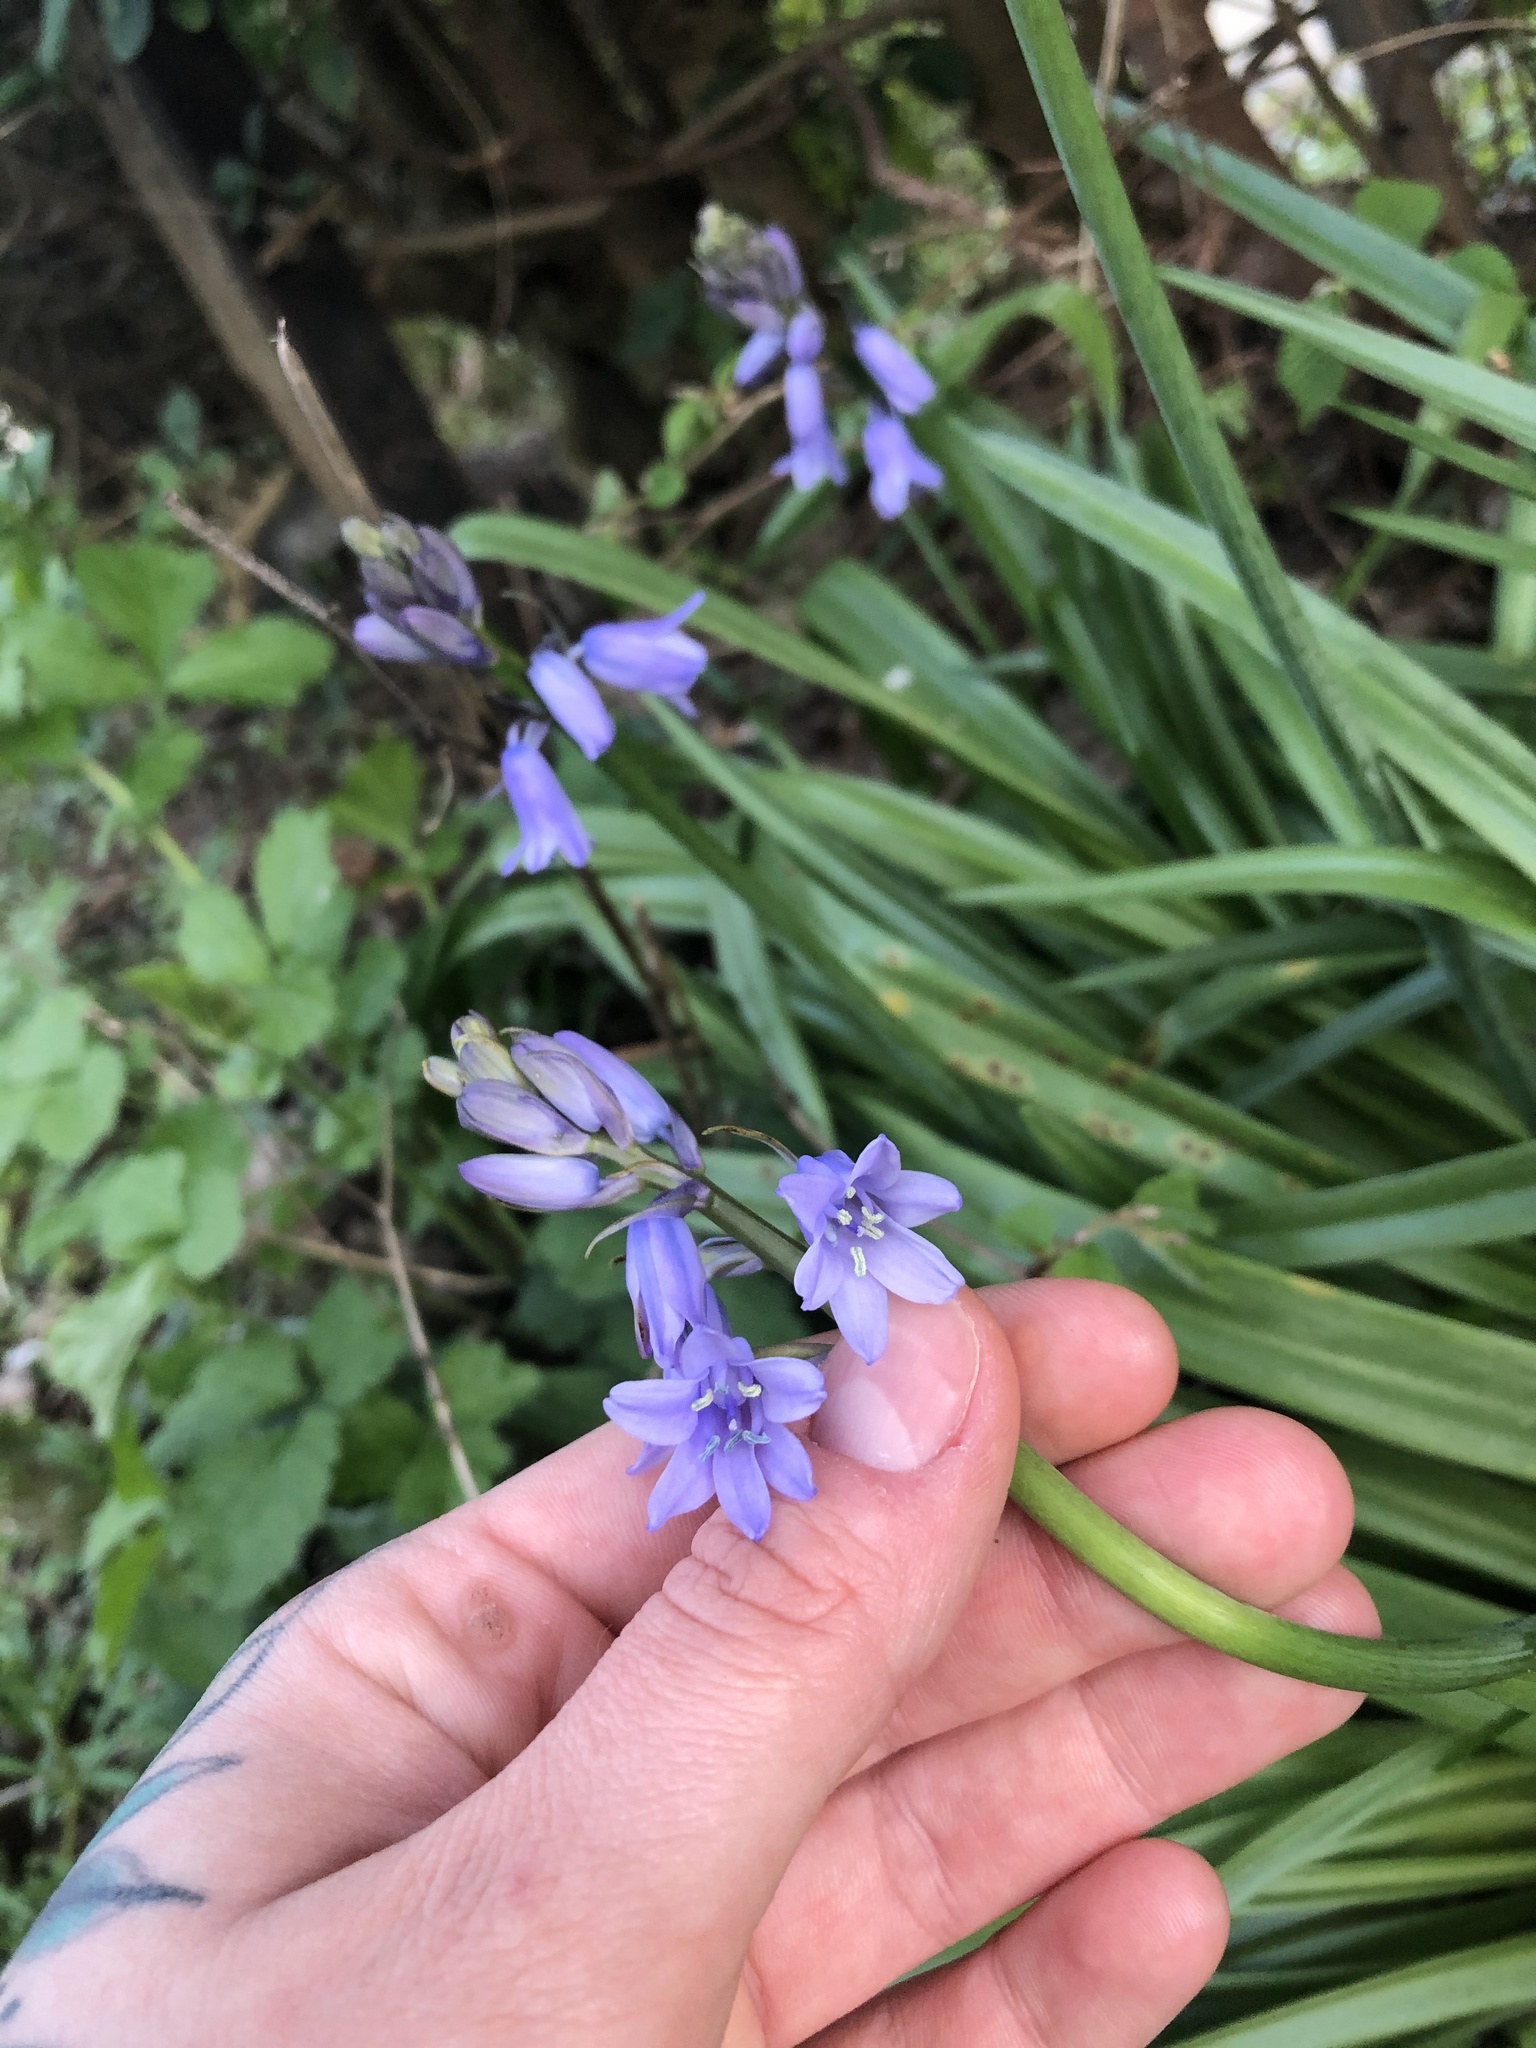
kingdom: Plantae
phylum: Tracheophyta
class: Liliopsida
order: Asparagales
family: Asparagaceae
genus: Hyacinthoides
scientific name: Hyacinthoides massartiana
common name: Hyacinthoides
